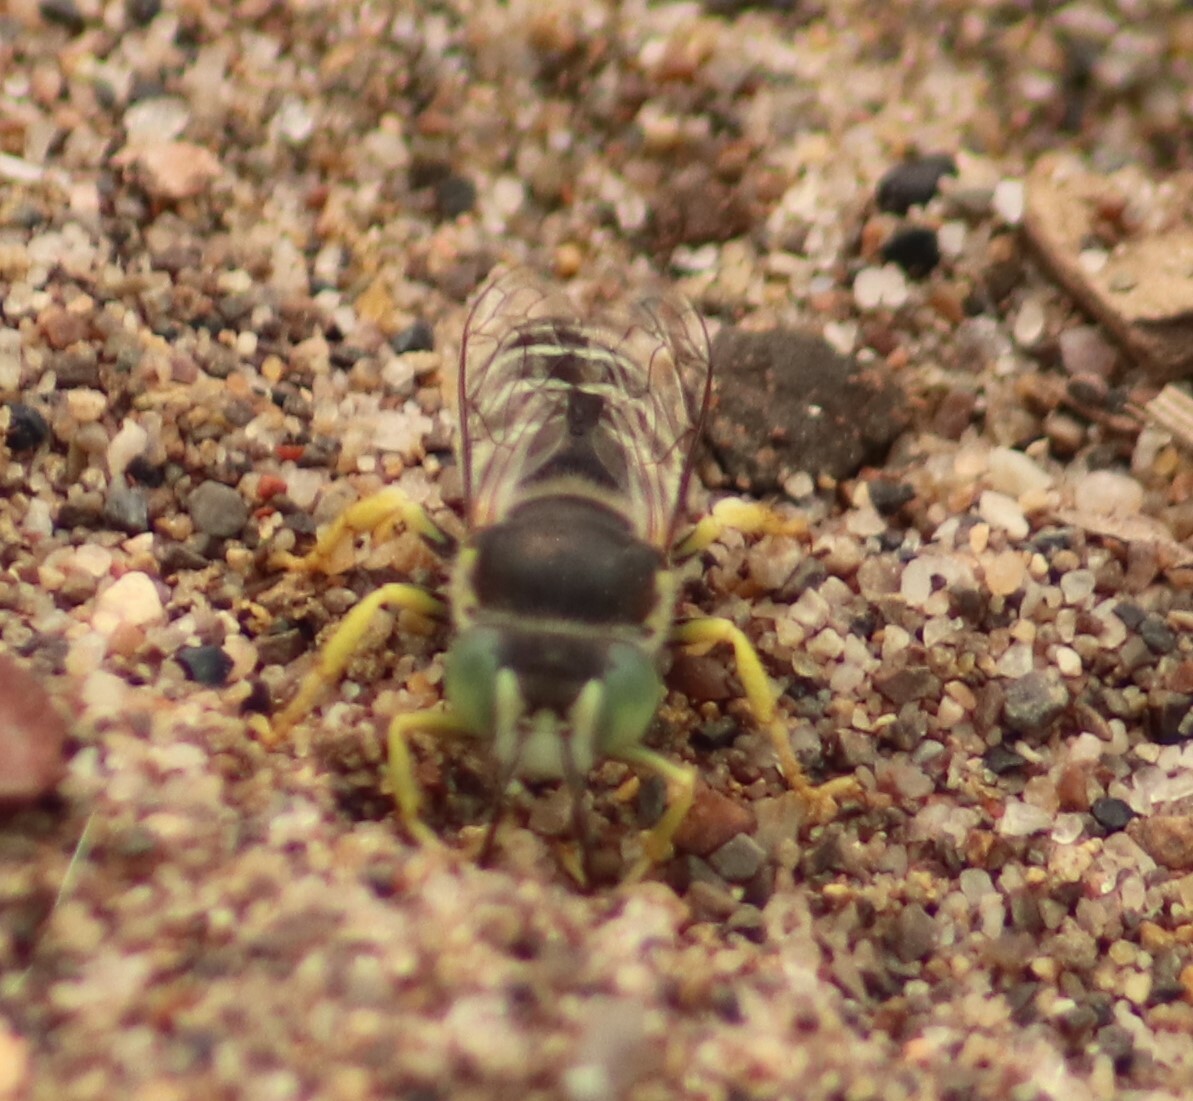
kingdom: Animalia
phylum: Arthropoda
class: Insecta
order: Hymenoptera
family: Crabronidae
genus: Bembix
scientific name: Bembix americana
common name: American sand wasp
